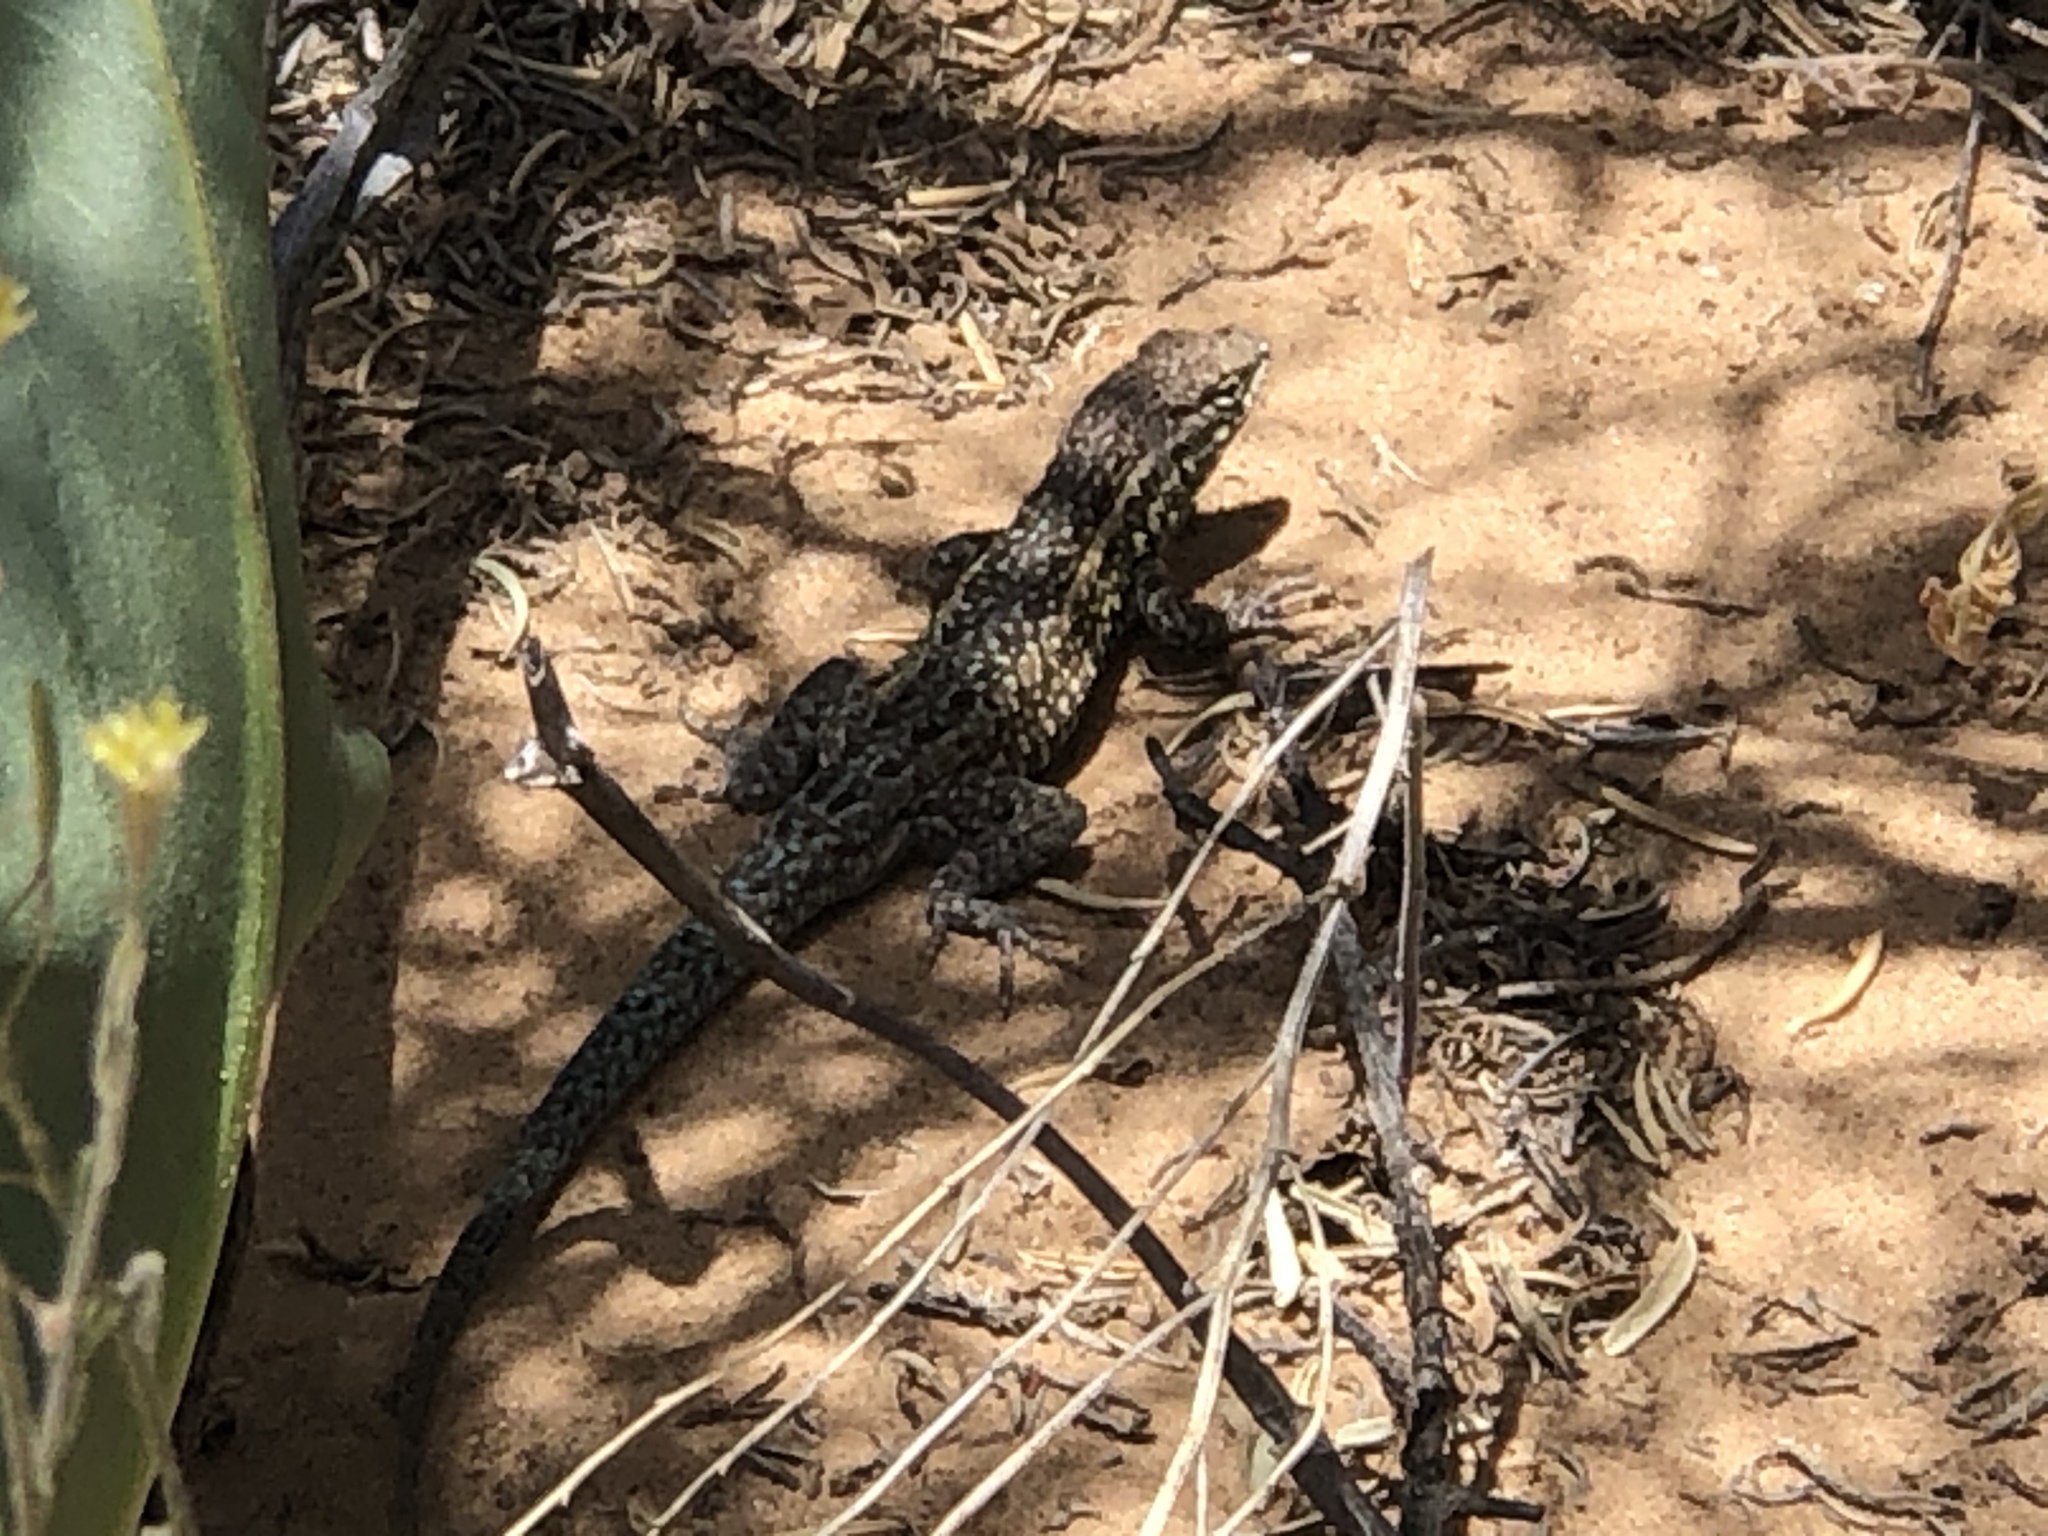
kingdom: Animalia
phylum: Chordata
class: Squamata
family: Phrynosomatidae
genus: Uta
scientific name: Uta stansburiana
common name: Side-blotched lizard
